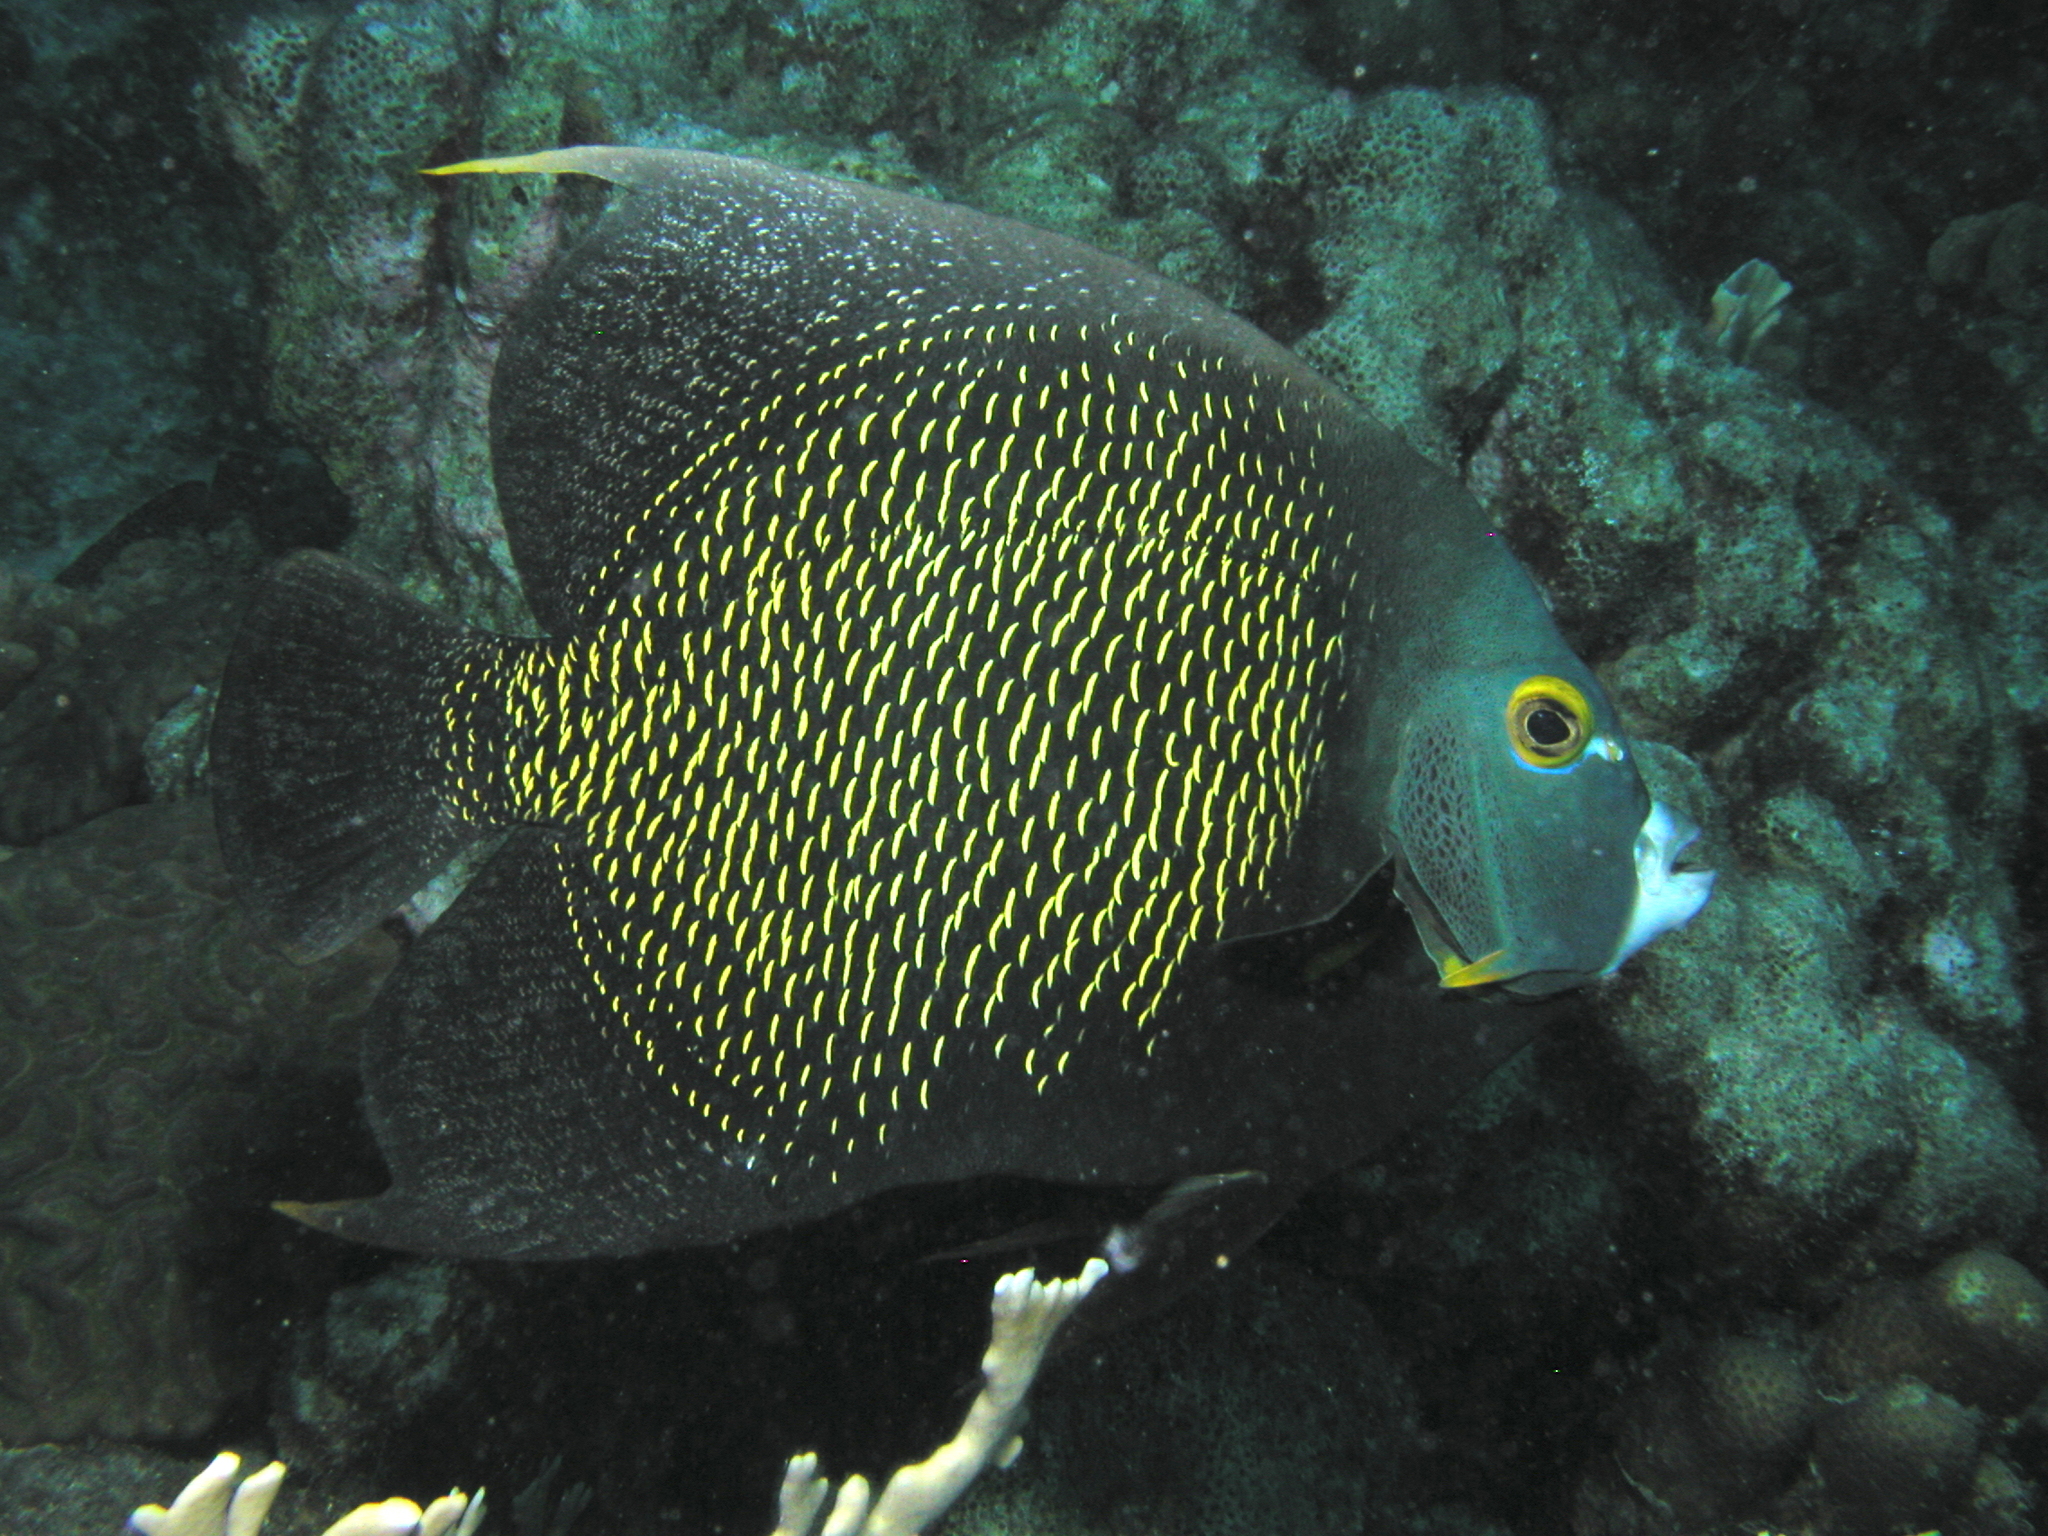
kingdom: Animalia
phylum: Chordata
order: Perciformes
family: Pomacanthidae
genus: Pomacanthus
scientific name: Pomacanthus paru
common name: French angelfish
